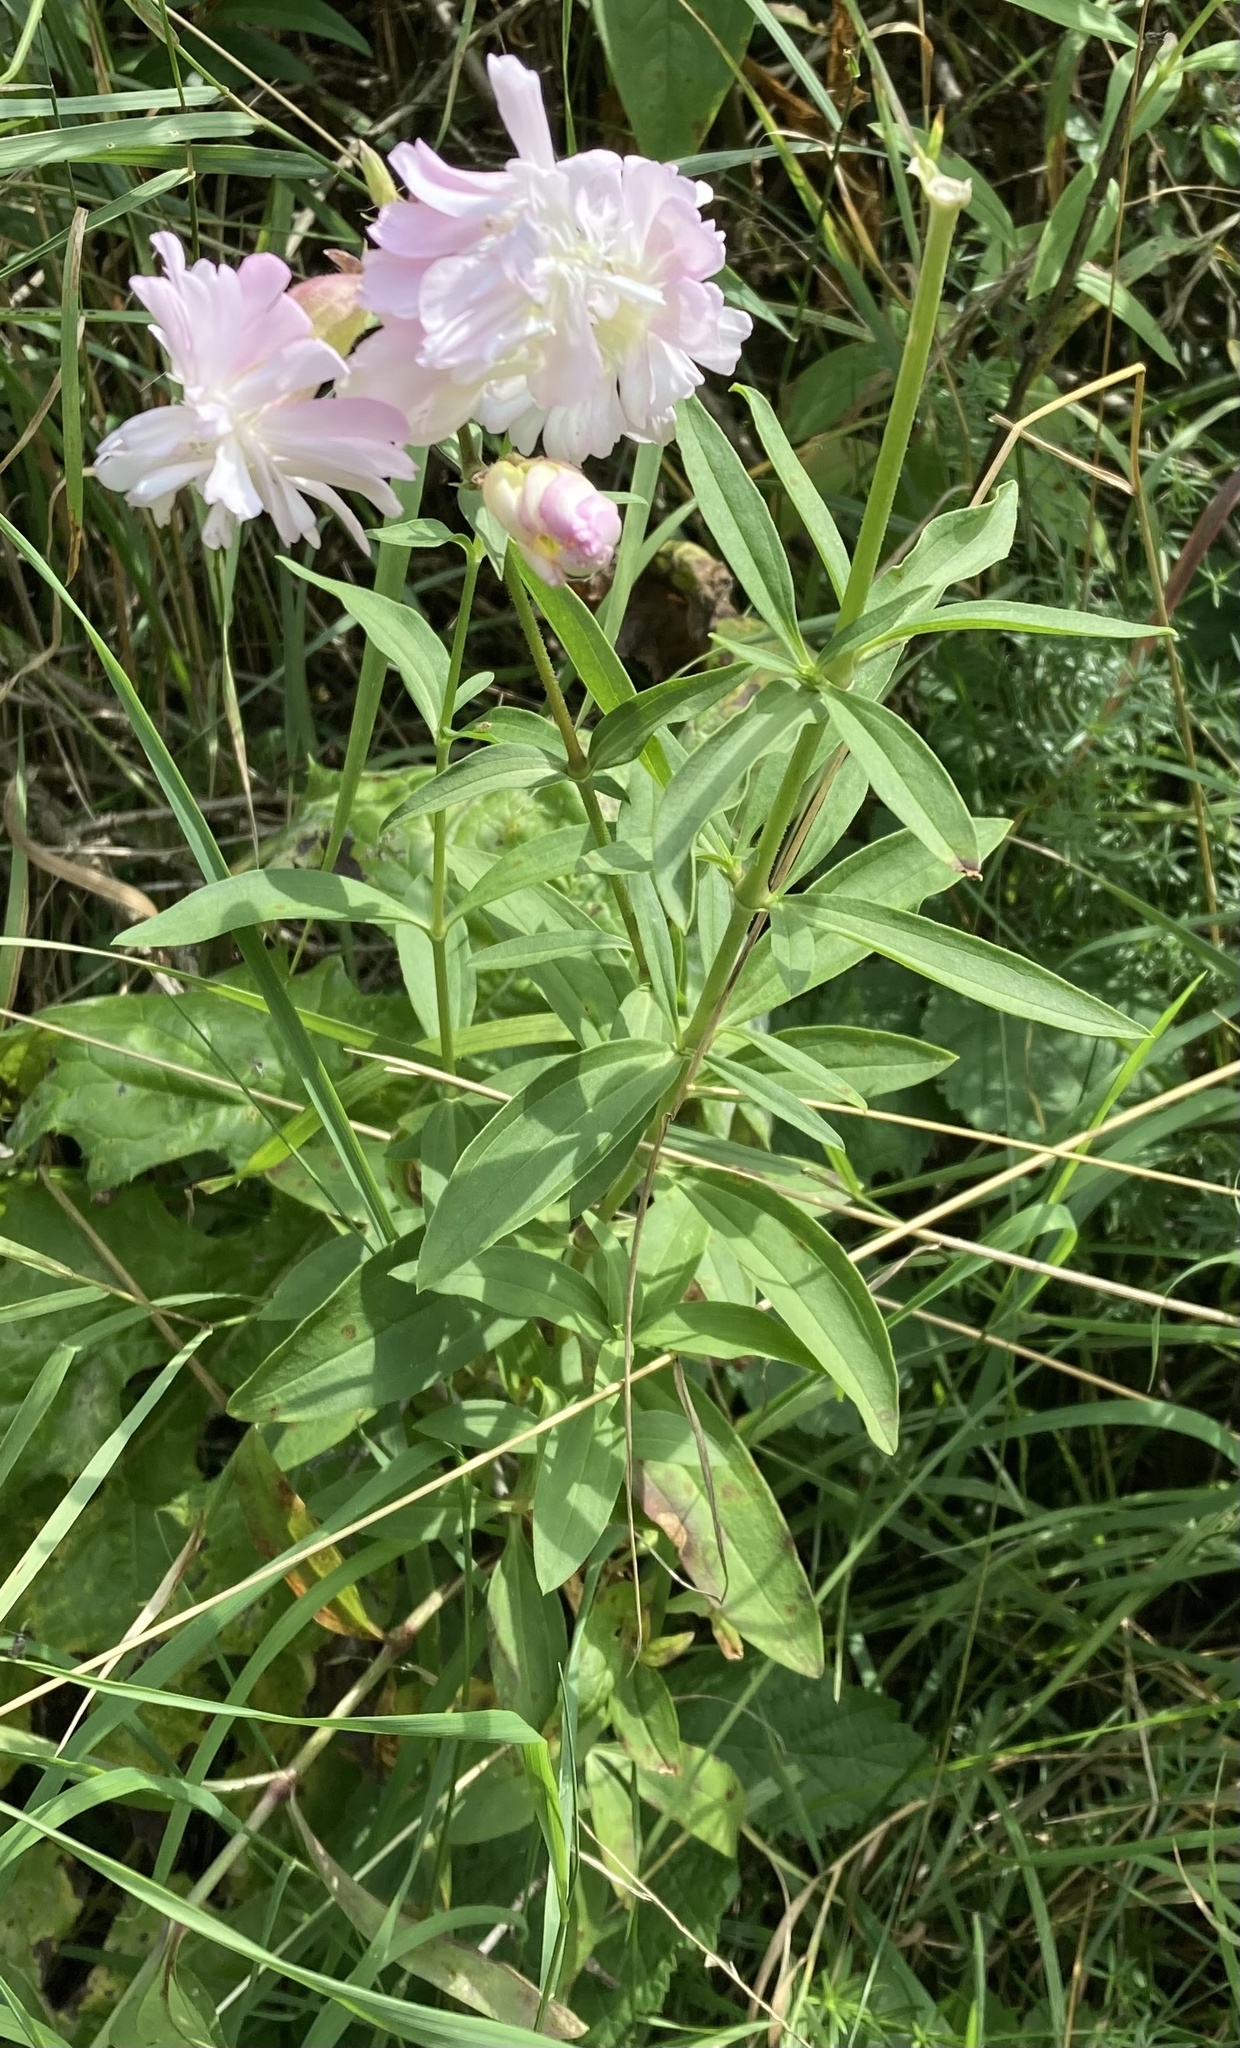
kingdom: Plantae
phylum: Tracheophyta
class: Magnoliopsida
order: Caryophyllales
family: Caryophyllaceae
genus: Saponaria
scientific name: Saponaria officinalis
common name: Soapwort
